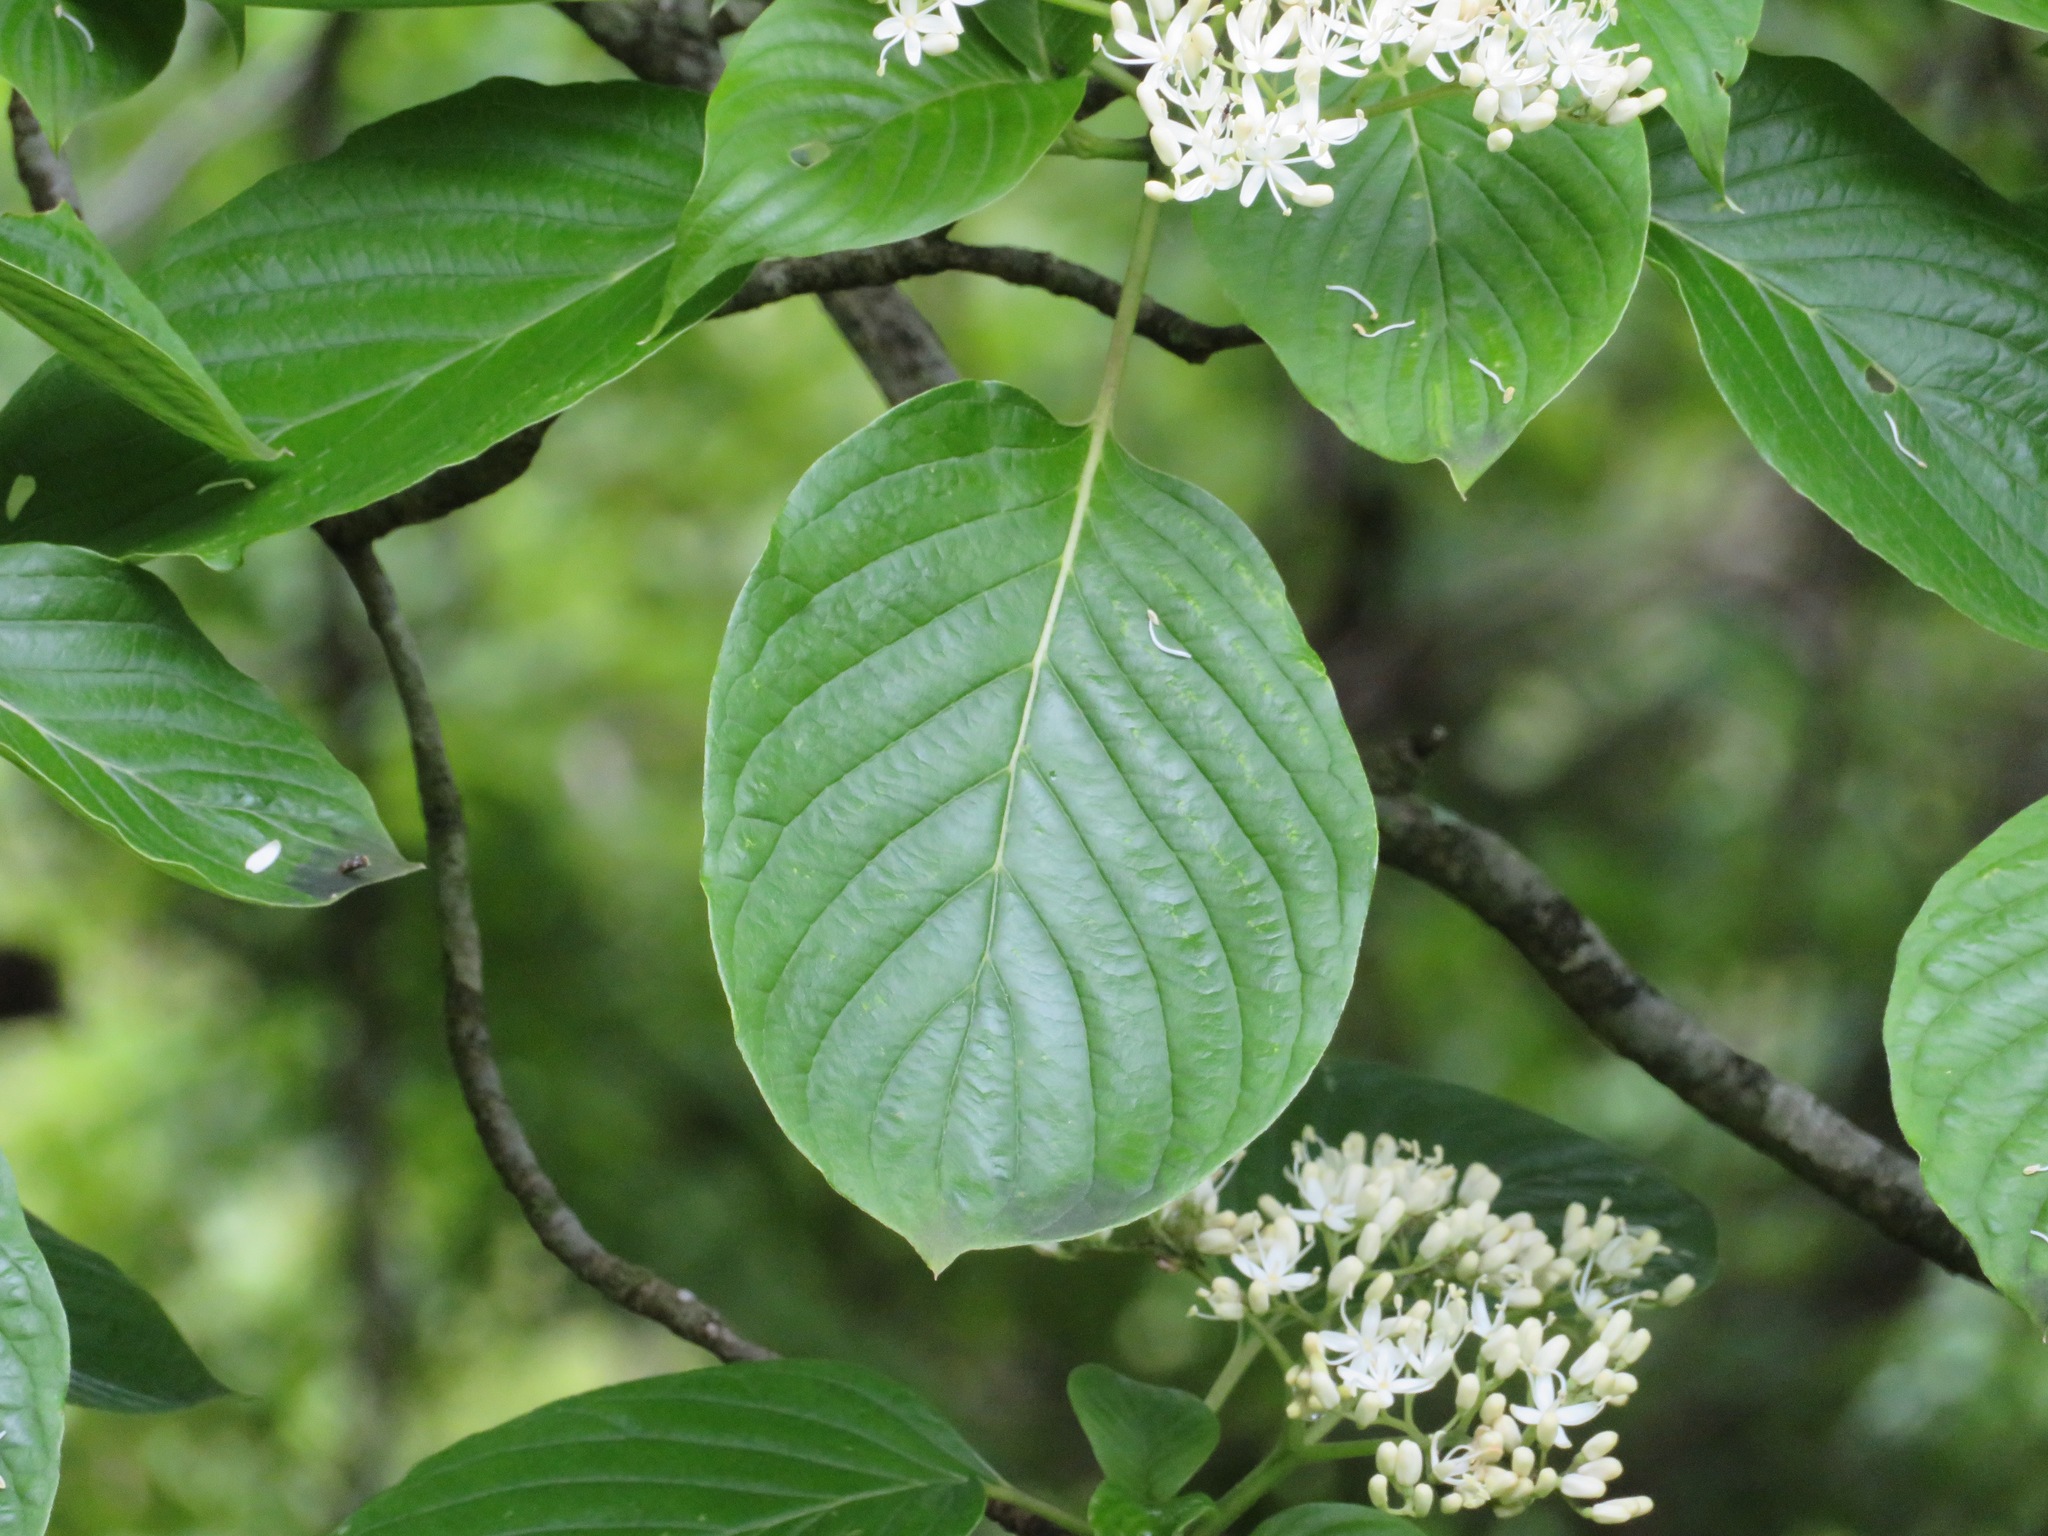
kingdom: Plantae
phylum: Tracheophyta
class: Magnoliopsida
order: Cornales
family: Cornaceae
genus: Cornus
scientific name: Cornus controversa
